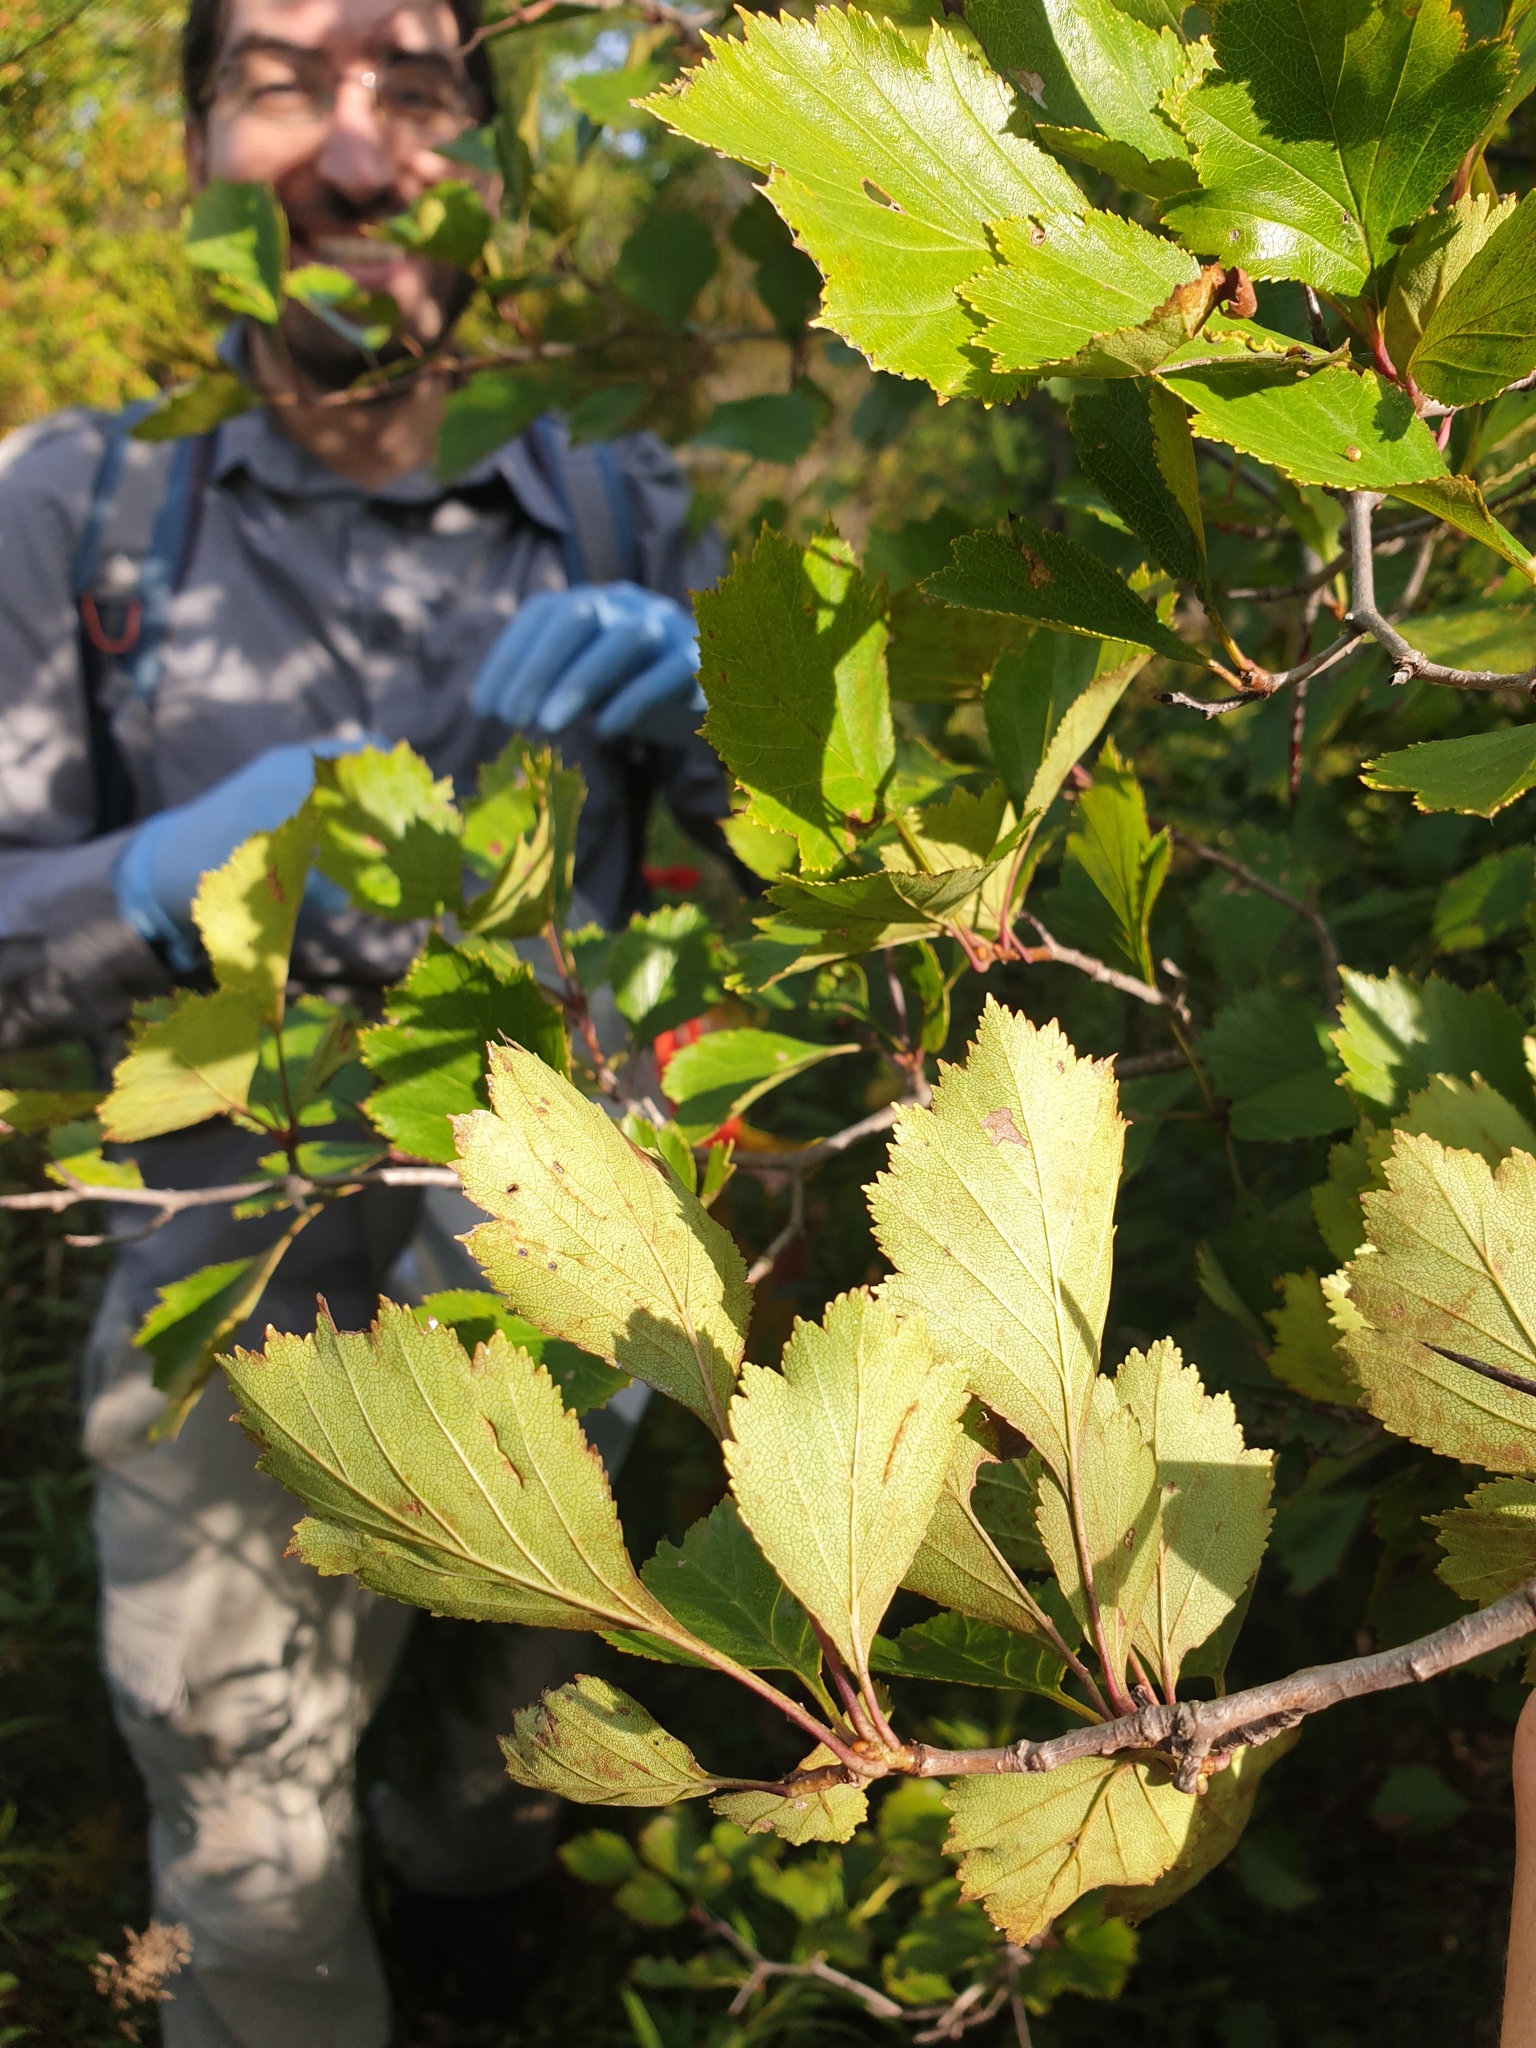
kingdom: Plantae
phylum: Tracheophyta
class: Magnoliopsida
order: Rosales
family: Rosaceae
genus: Crataegus
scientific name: Crataegus chrysocarpa
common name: Fire-berry hawthorn
